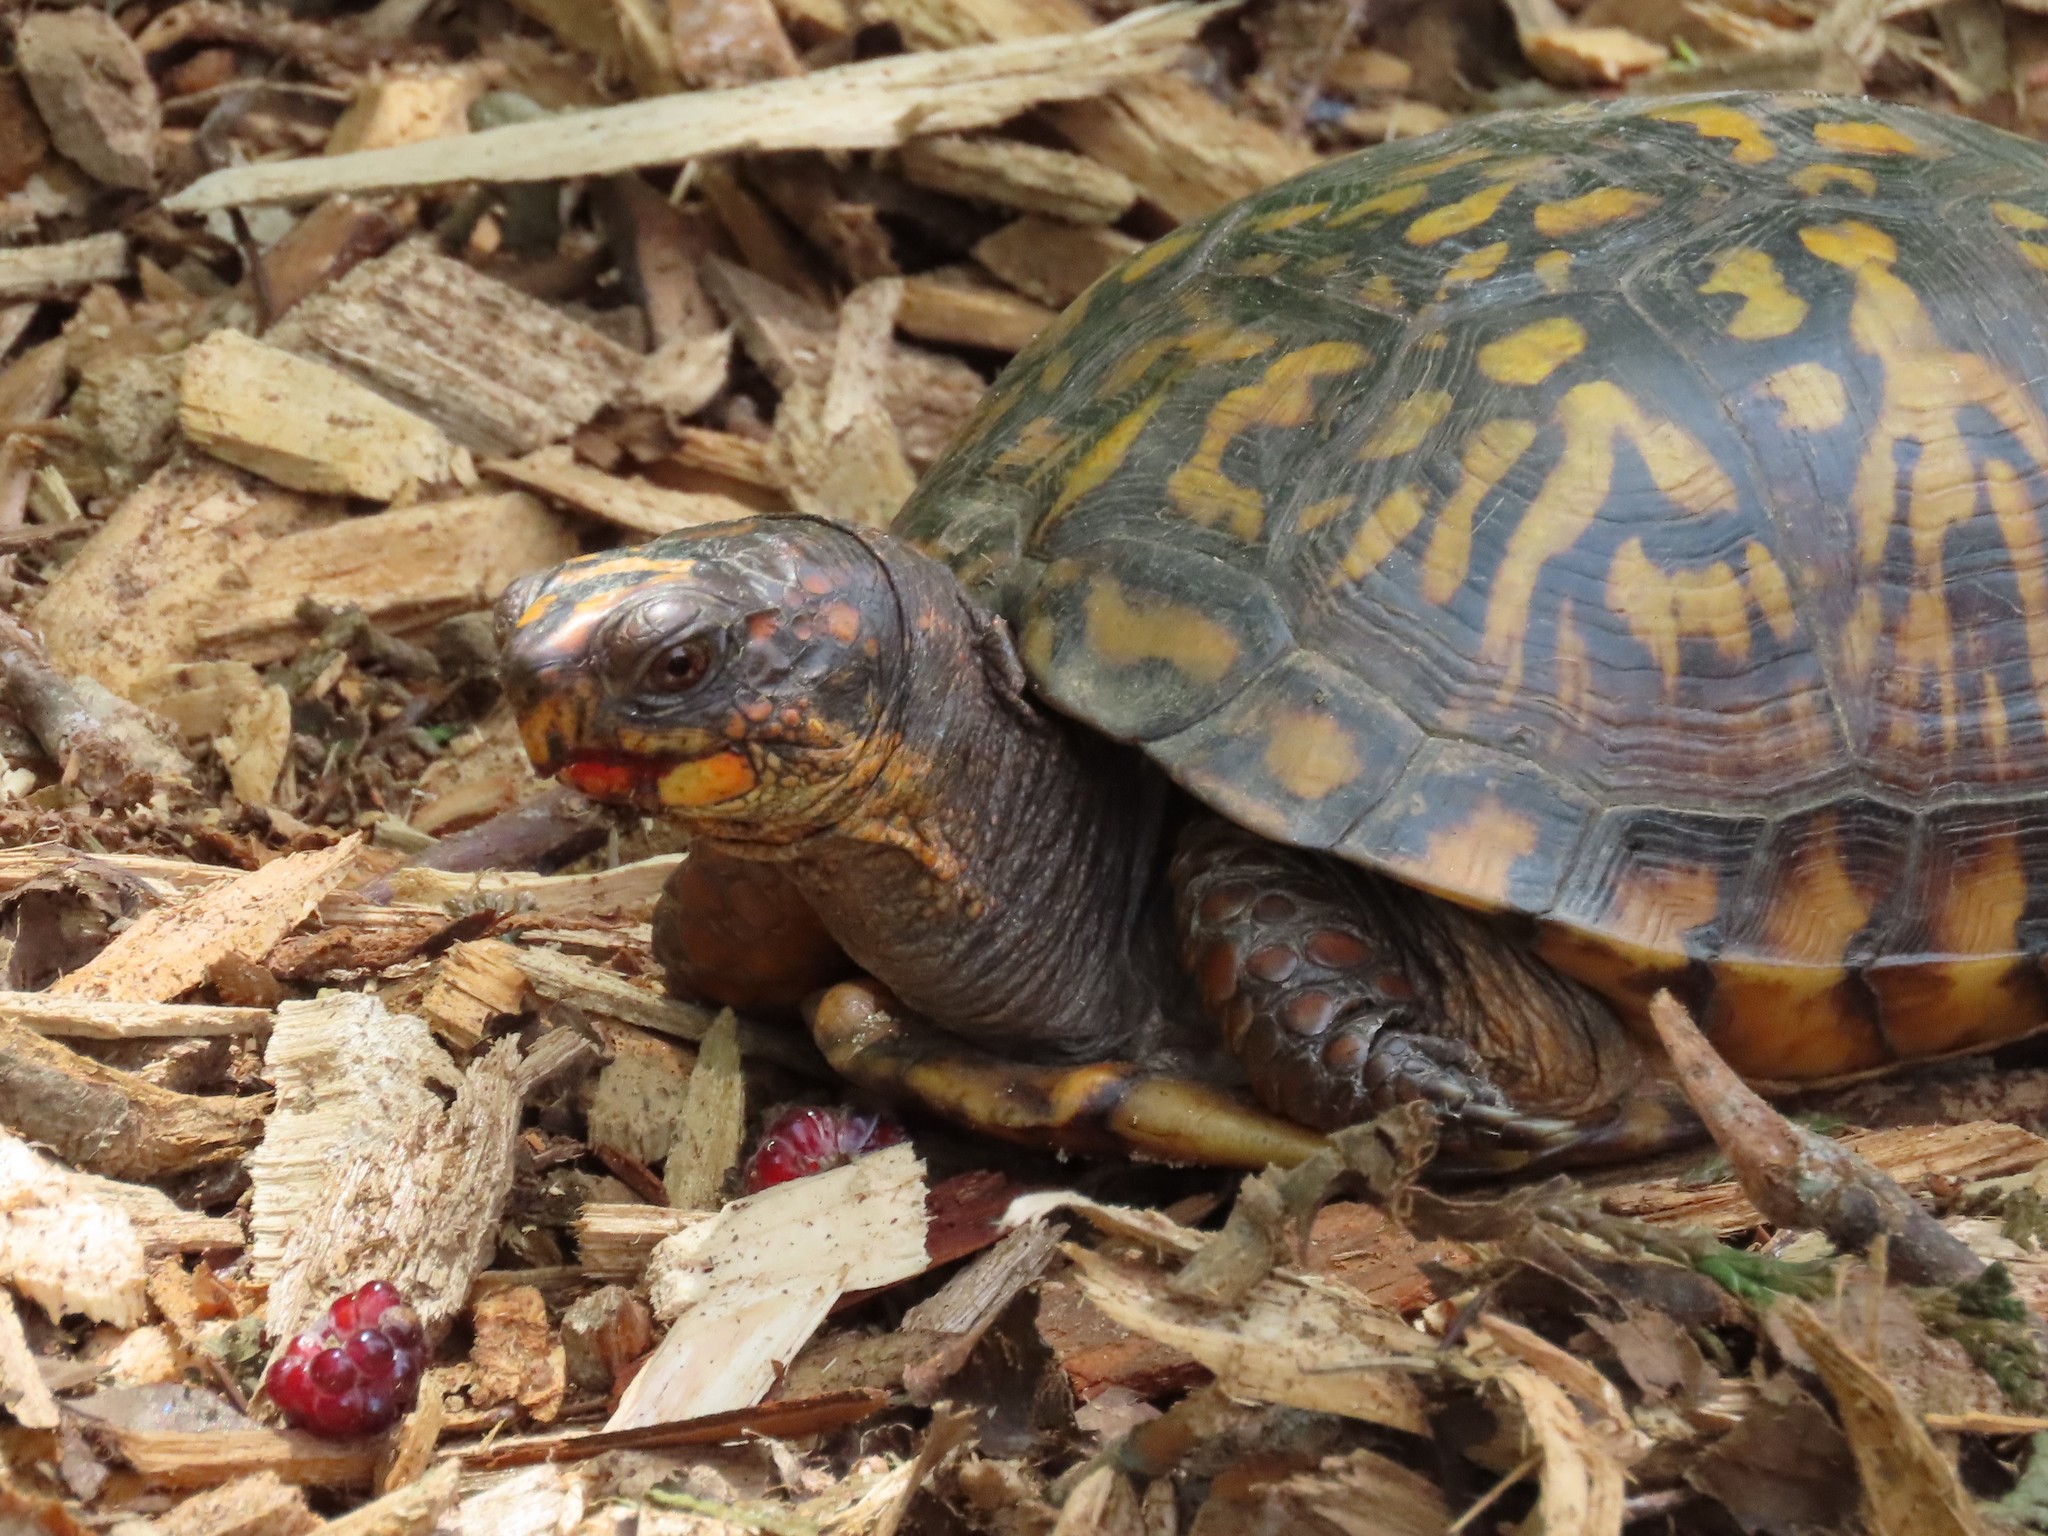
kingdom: Animalia
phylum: Chordata
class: Testudines
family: Emydidae
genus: Terrapene
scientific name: Terrapene carolina
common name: Common box turtle
